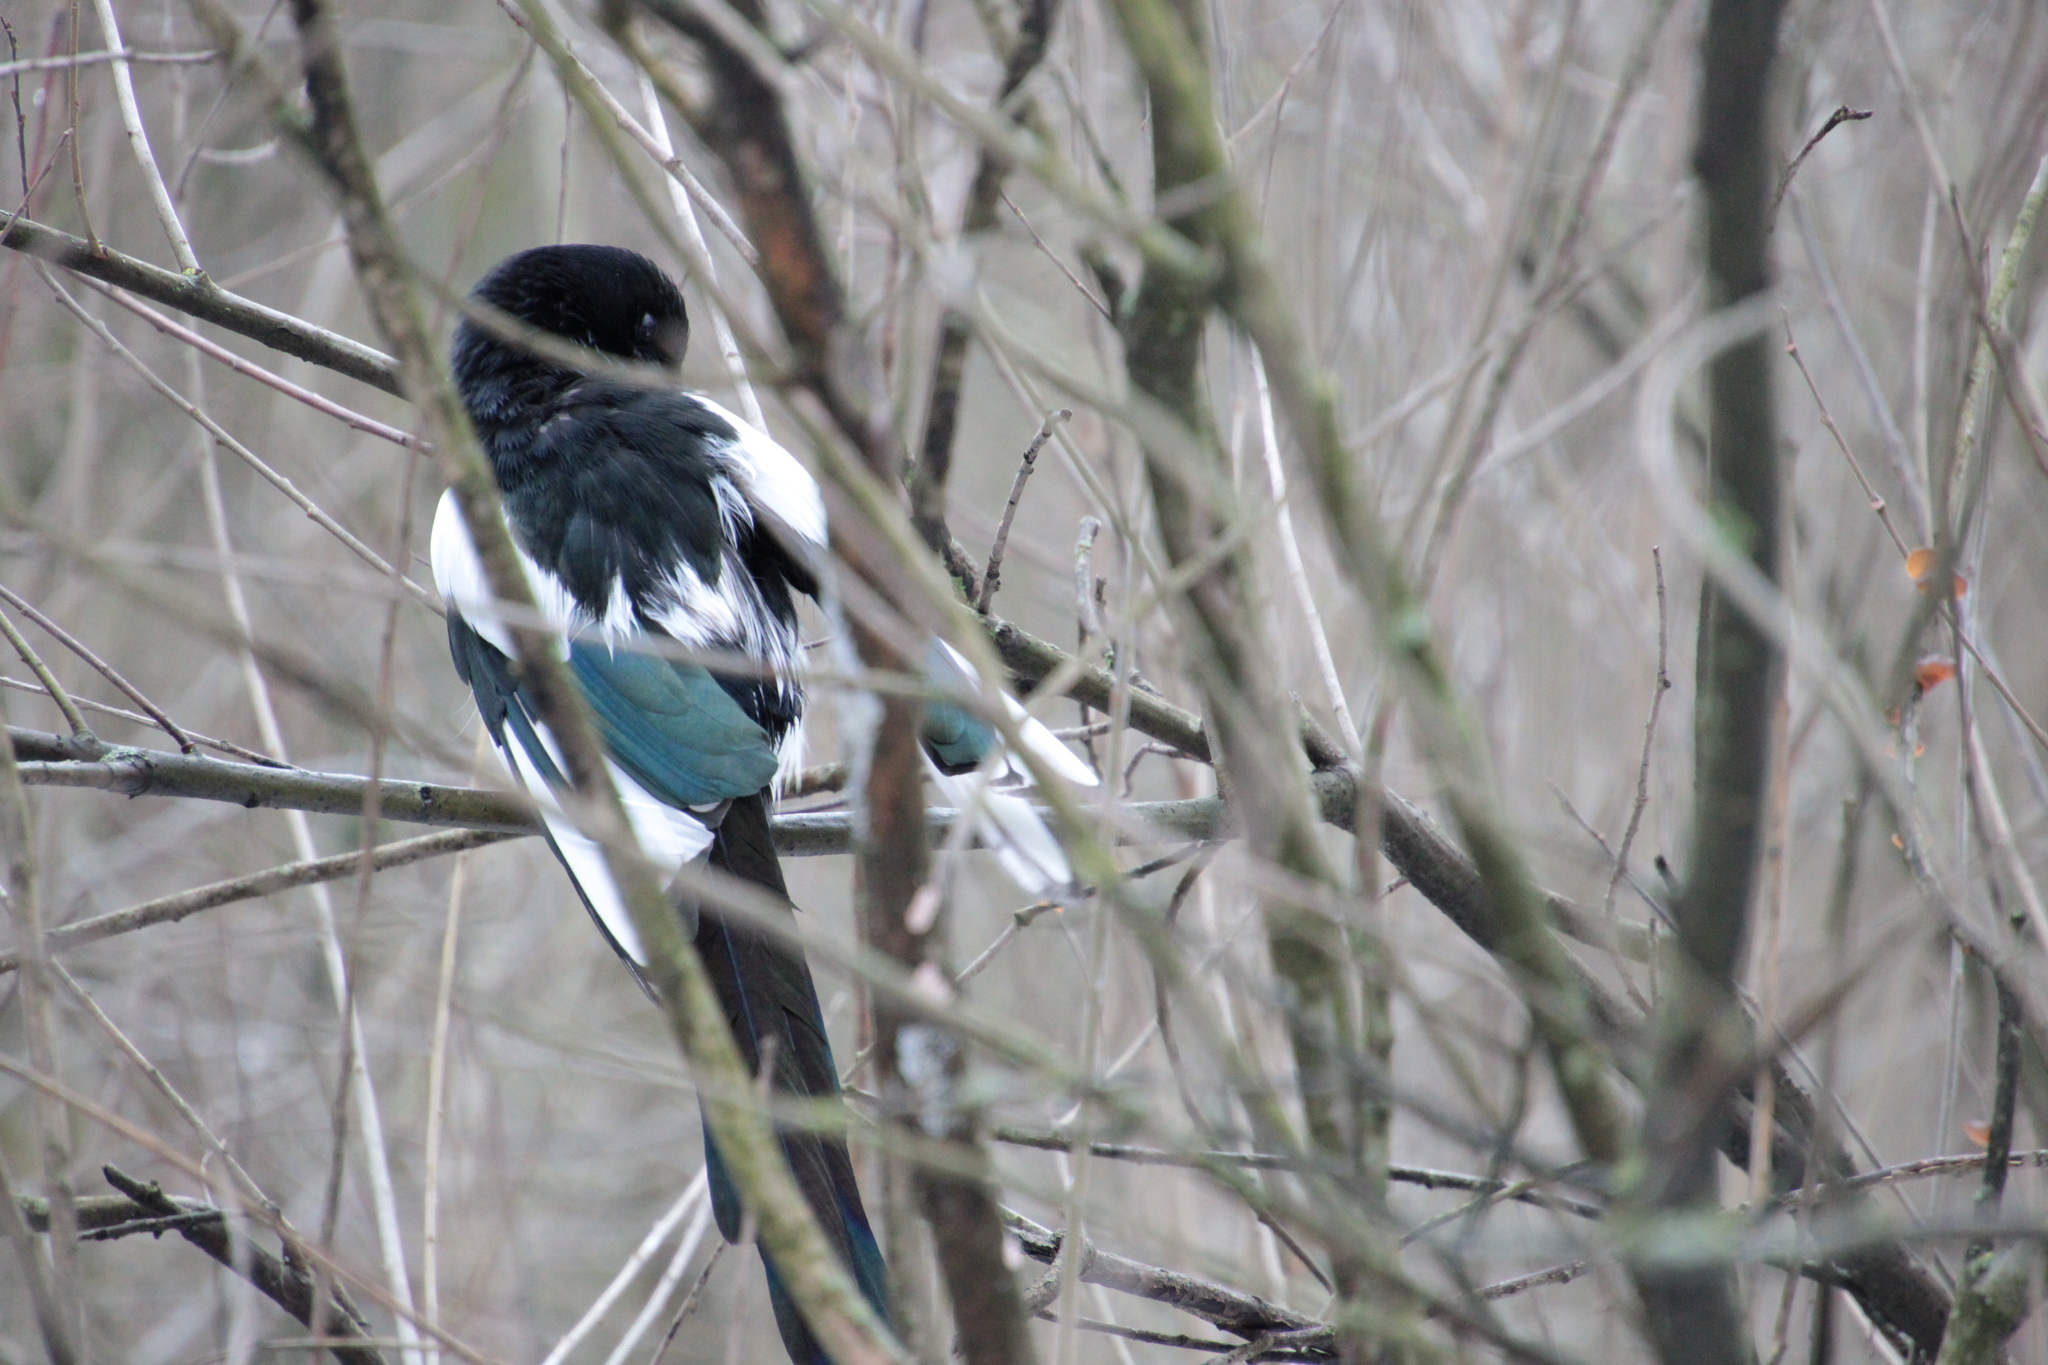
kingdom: Animalia
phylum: Chordata
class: Aves
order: Passeriformes
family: Corvidae
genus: Pica
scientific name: Pica pica
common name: Eurasian magpie
